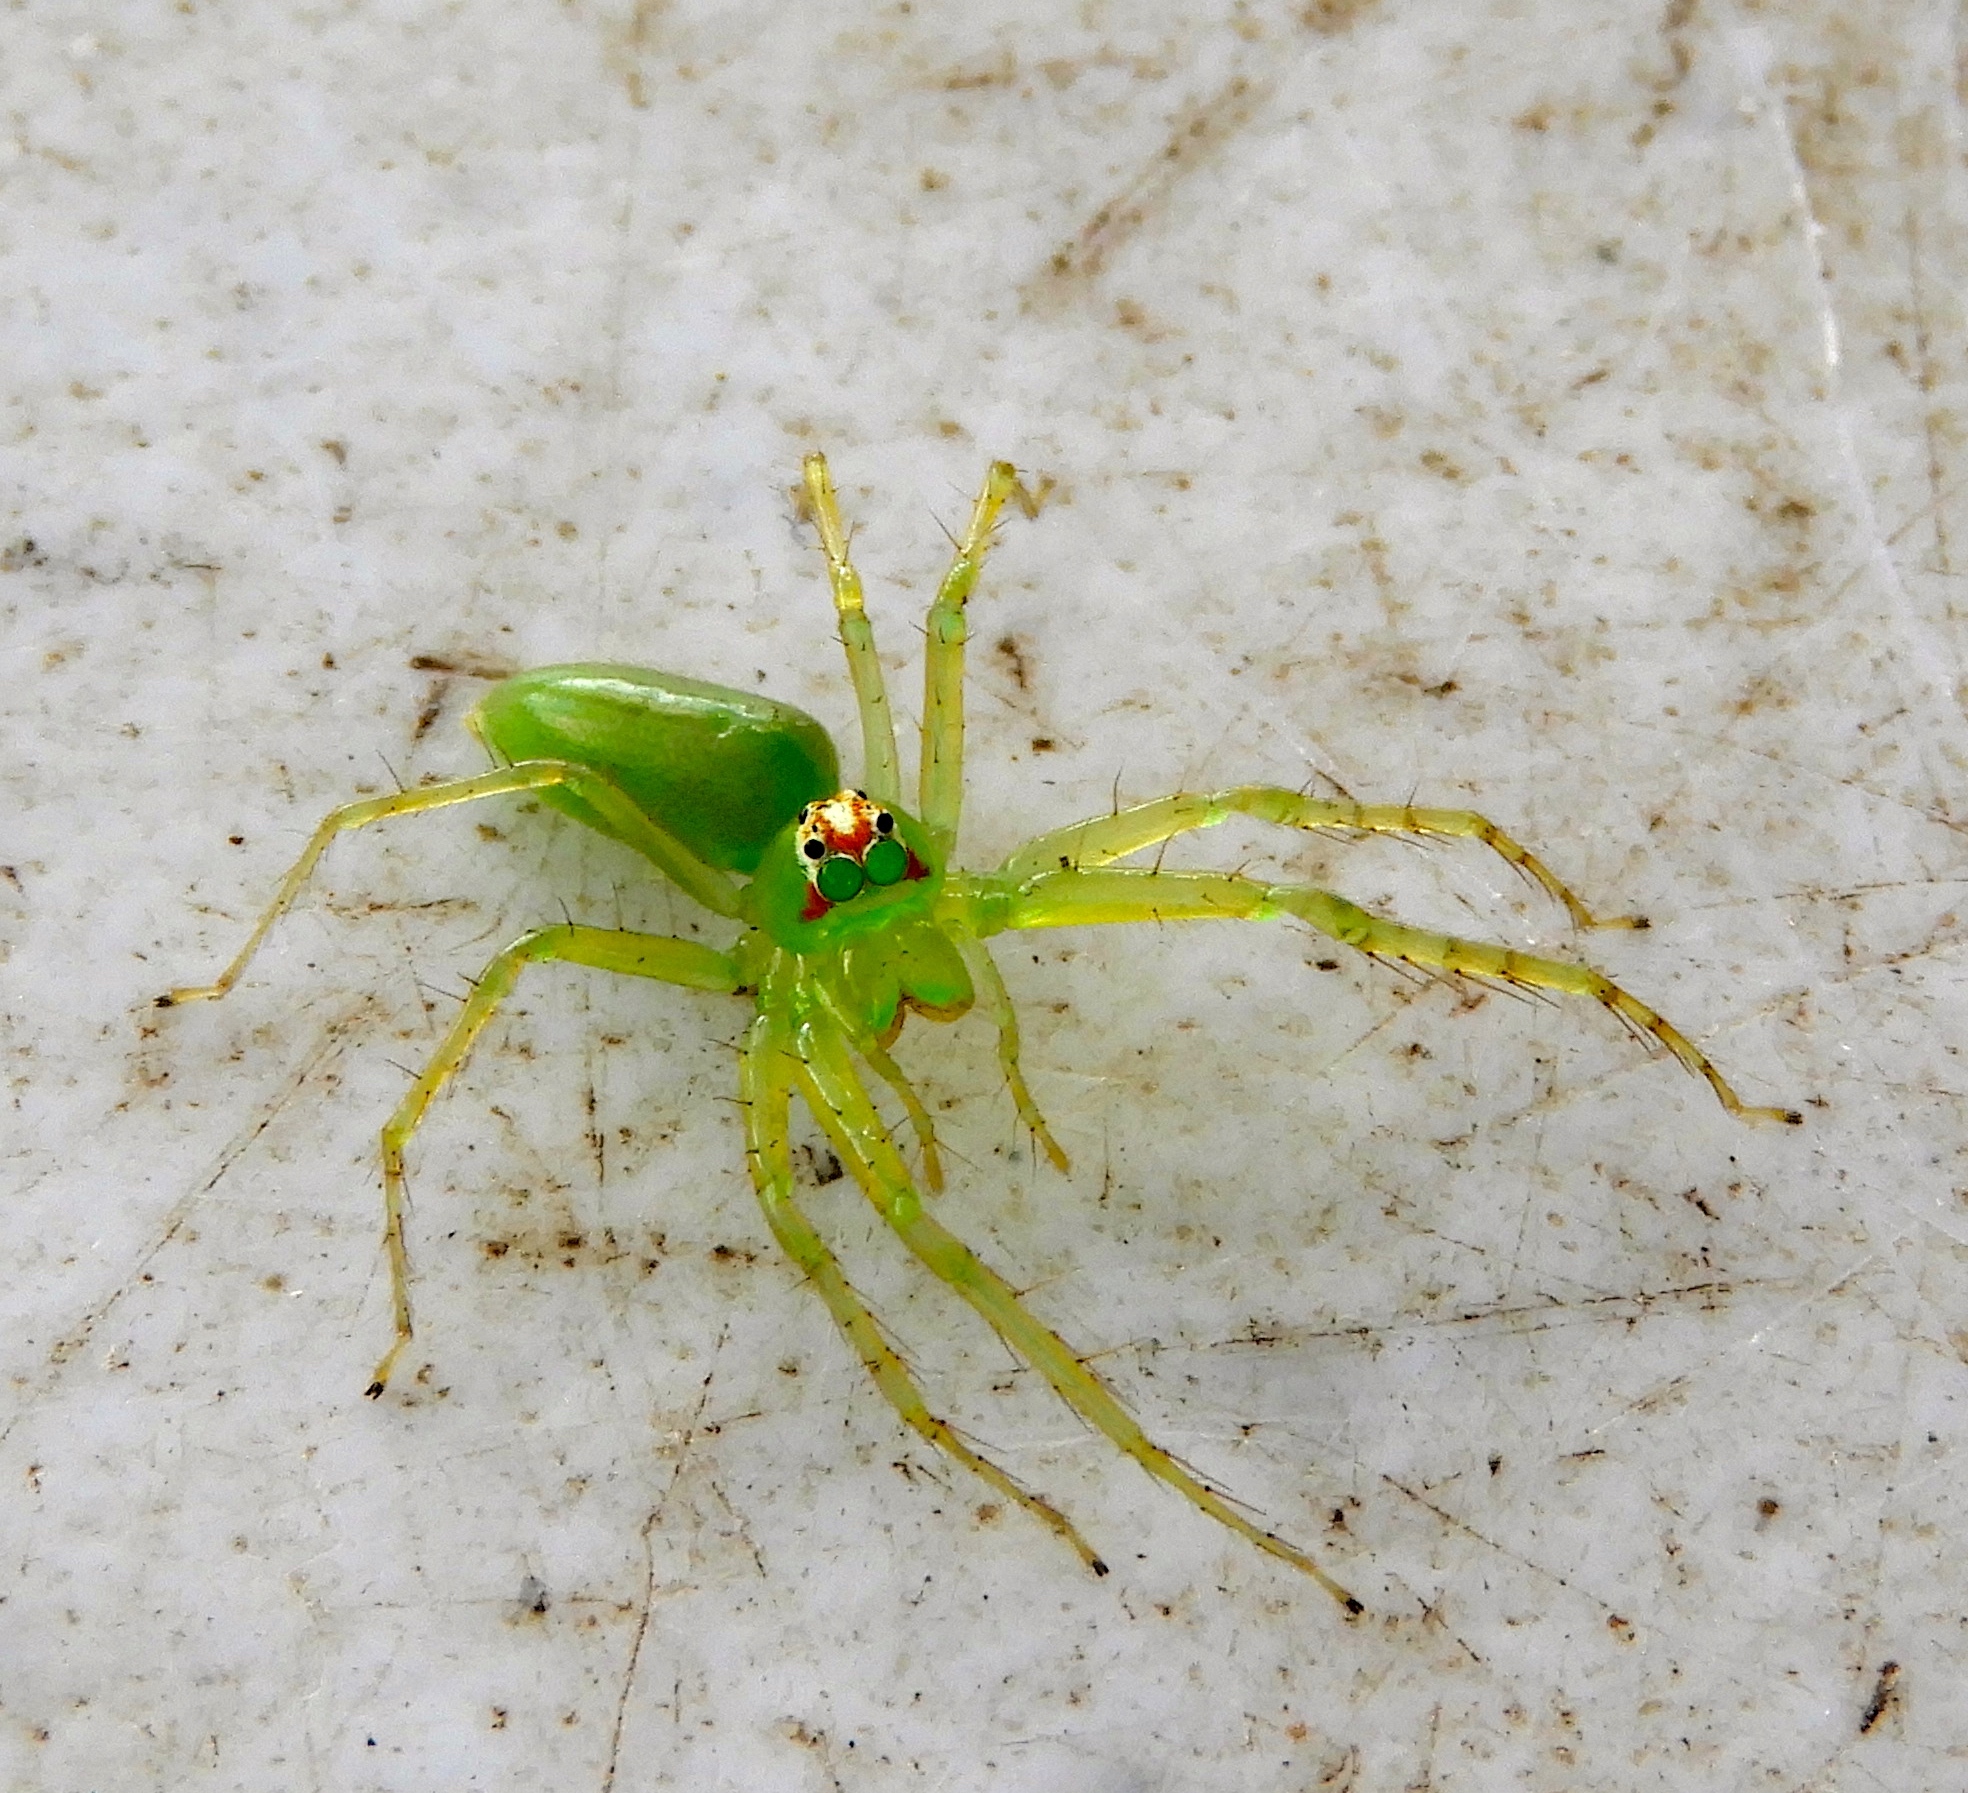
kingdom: Animalia
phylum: Arthropoda
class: Arachnida
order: Araneae
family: Salticidae
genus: Lyssomanes
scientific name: Lyssomanes
